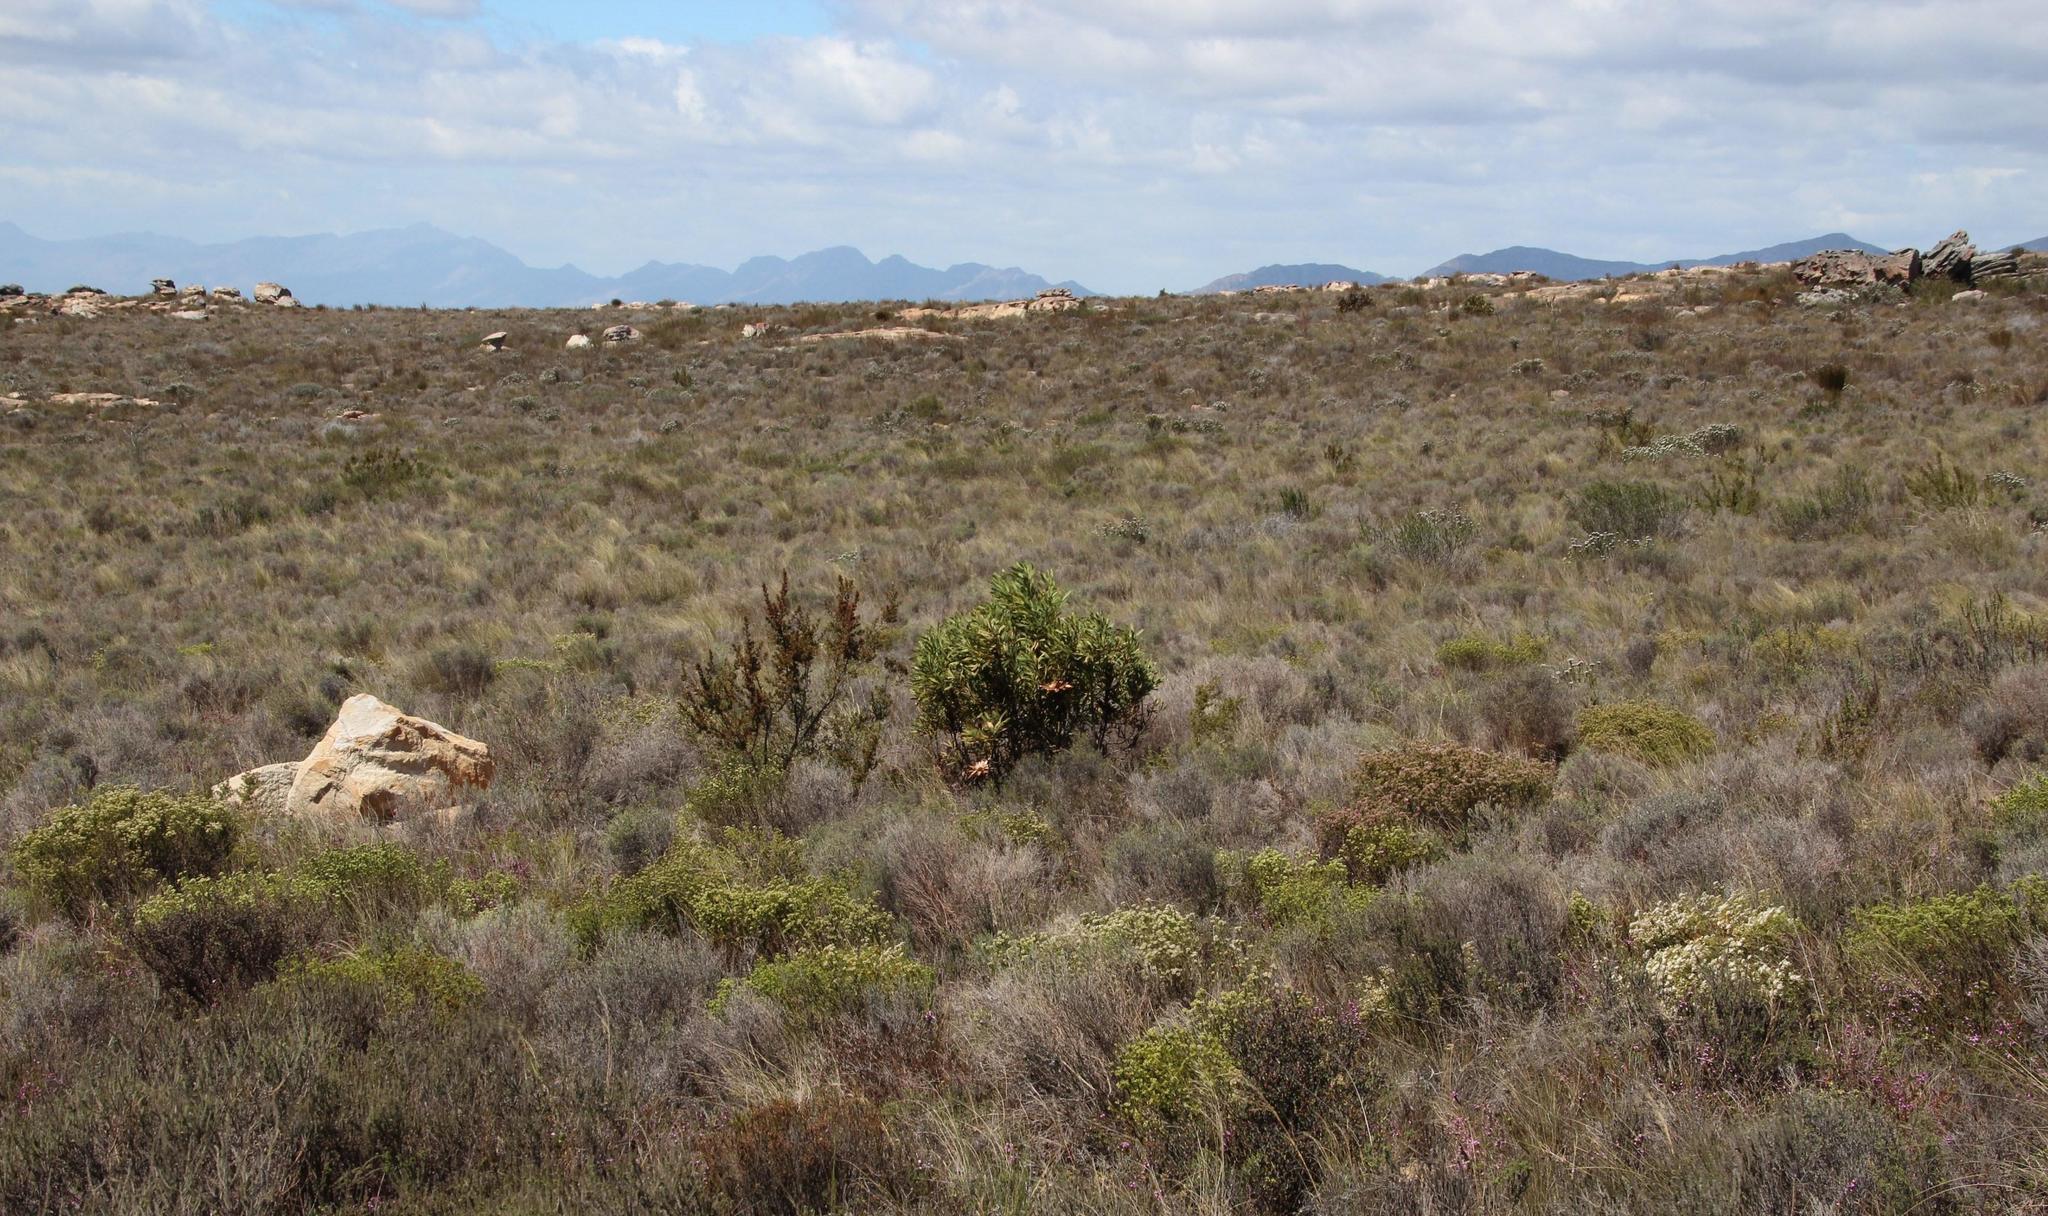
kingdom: Plantae
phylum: Tracheophyta
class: Magnoliopsida
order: Proteales
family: Proteaceae
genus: Protea
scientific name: Protea repens
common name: Sugarbush
